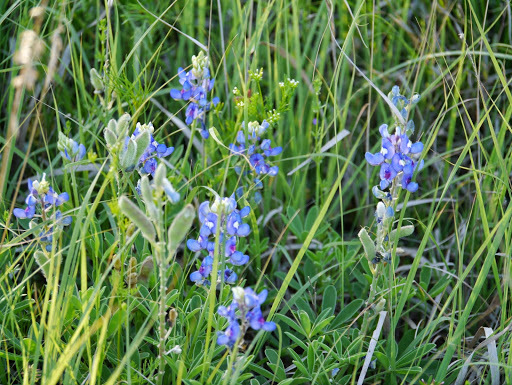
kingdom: Plantae
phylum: Tracheophyta
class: Magnoliopsida
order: Fabales
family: Fabaceae
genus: Lupinus
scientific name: Lupinus texensis
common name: Texas bluebonnet
